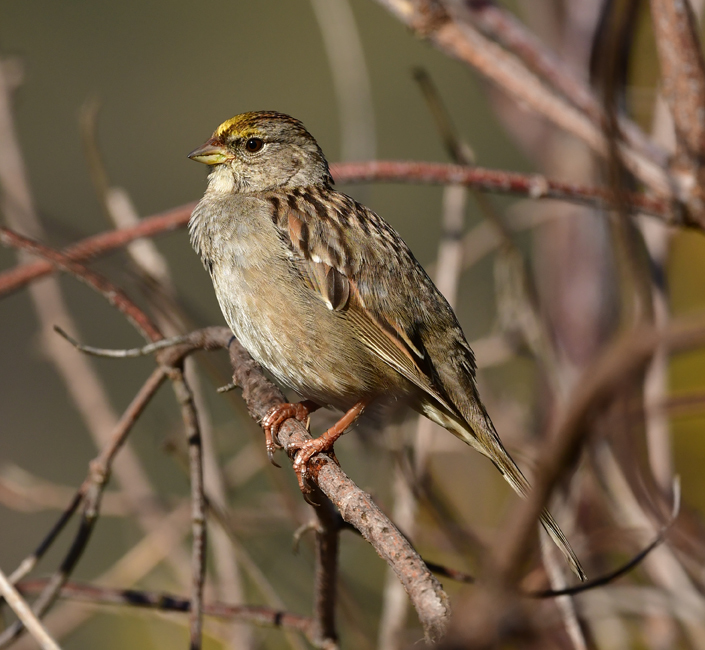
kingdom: Animalia
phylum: Chordata
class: Aves
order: Passeriformes
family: Passerellidae
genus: Zonotrichia
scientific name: Zonotrichia atricapilla
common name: Golden-crowned sparrow
